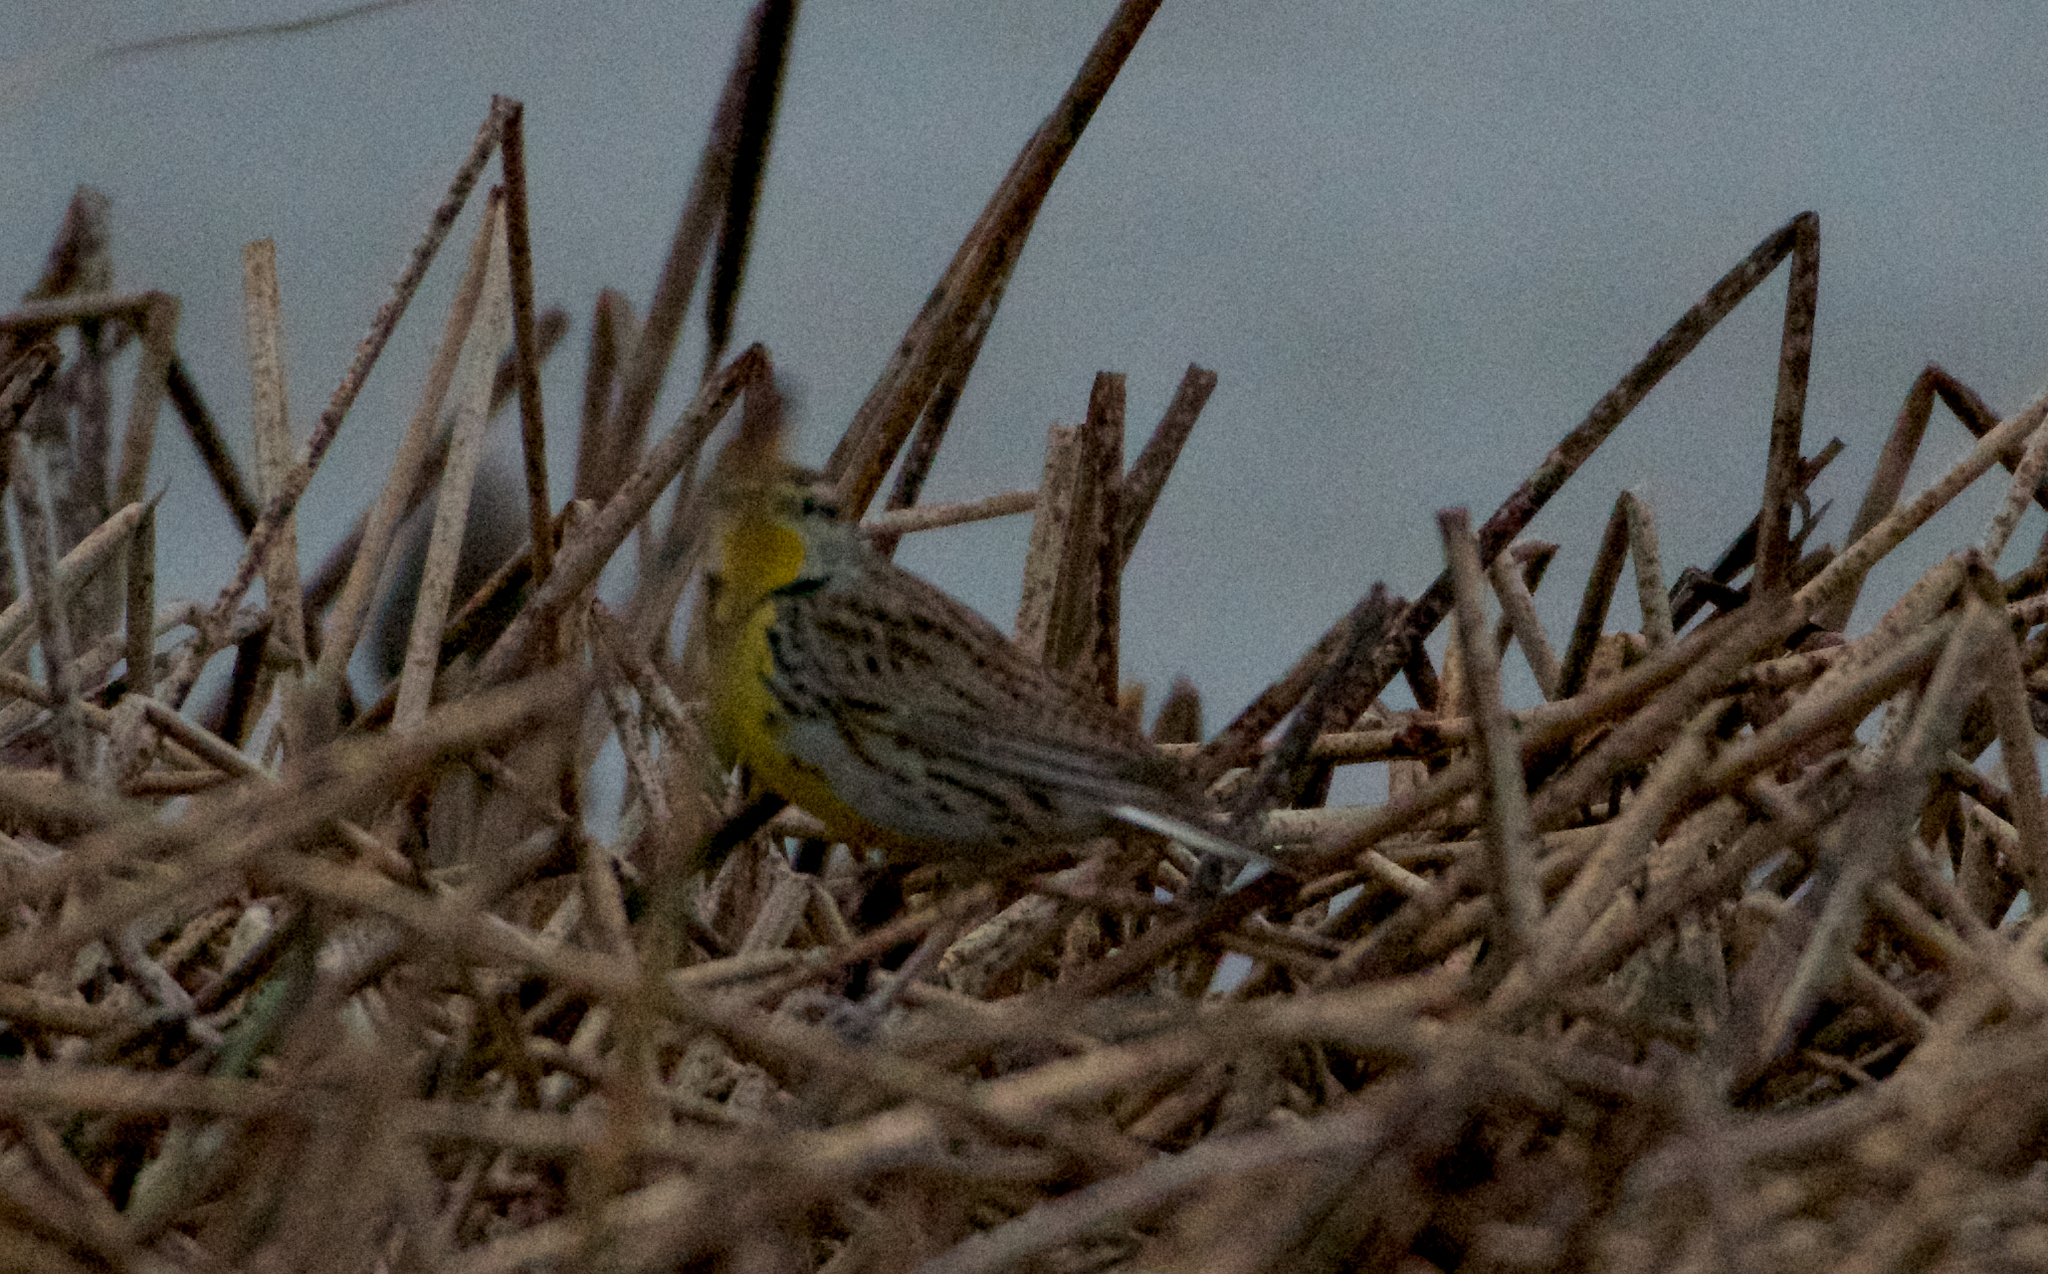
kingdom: Animalia
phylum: Chordata
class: Aves
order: Passeriformes
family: Icteridae
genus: Sturnella
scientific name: Sturnella neglecta
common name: Western meadowlark
